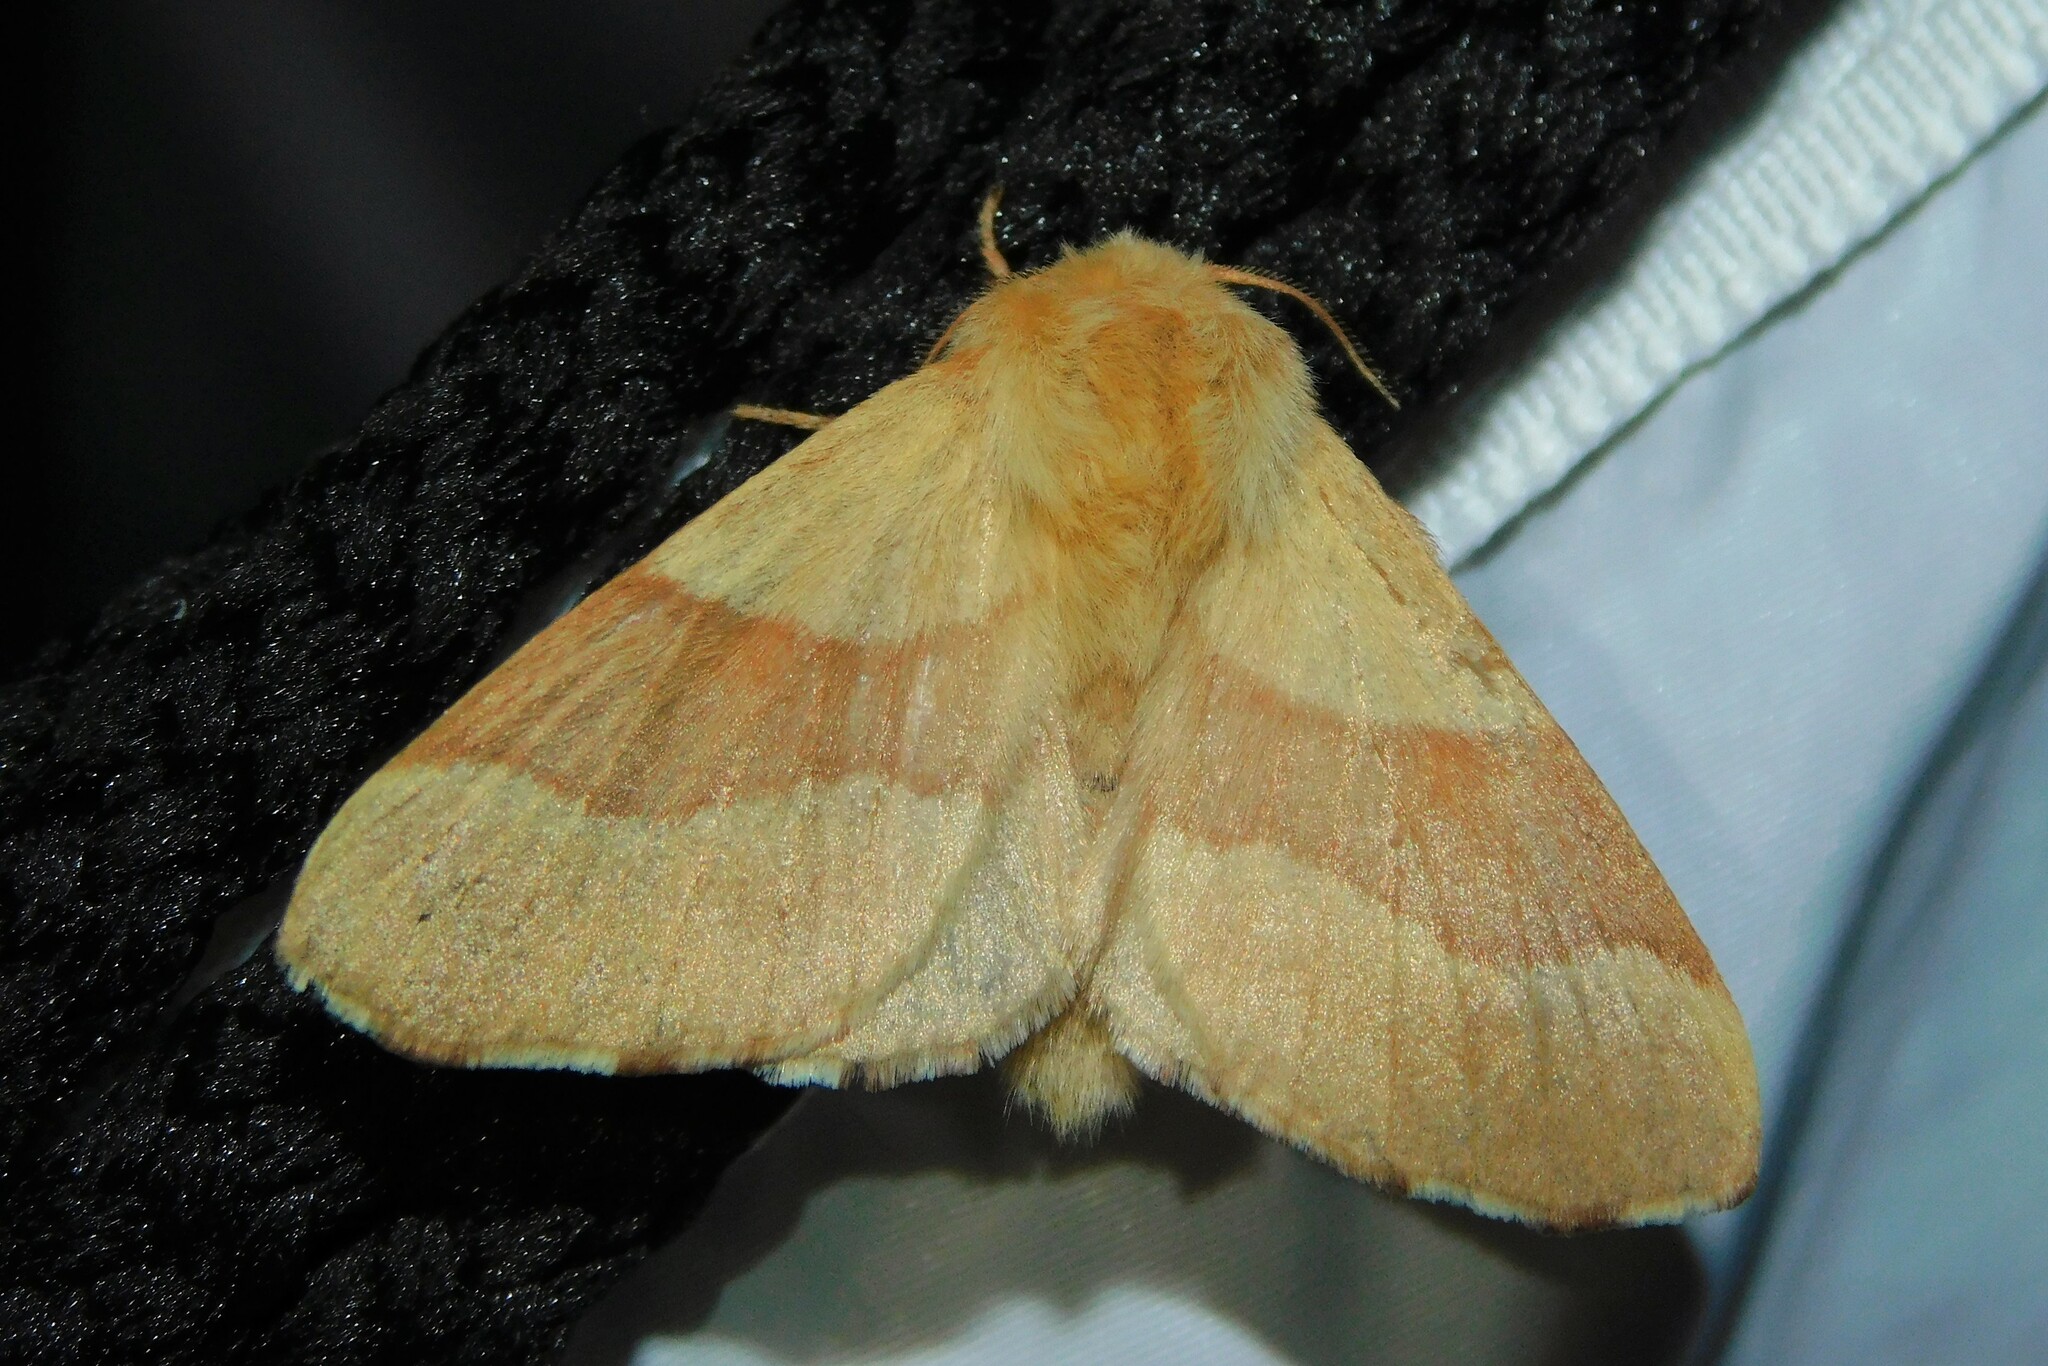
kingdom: Animalia
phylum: Arthropoda
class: Insecta
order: Lepidoptera
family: Lasiocampidae
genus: Malacosoma
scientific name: Malacosoma neustria
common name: The lackey
